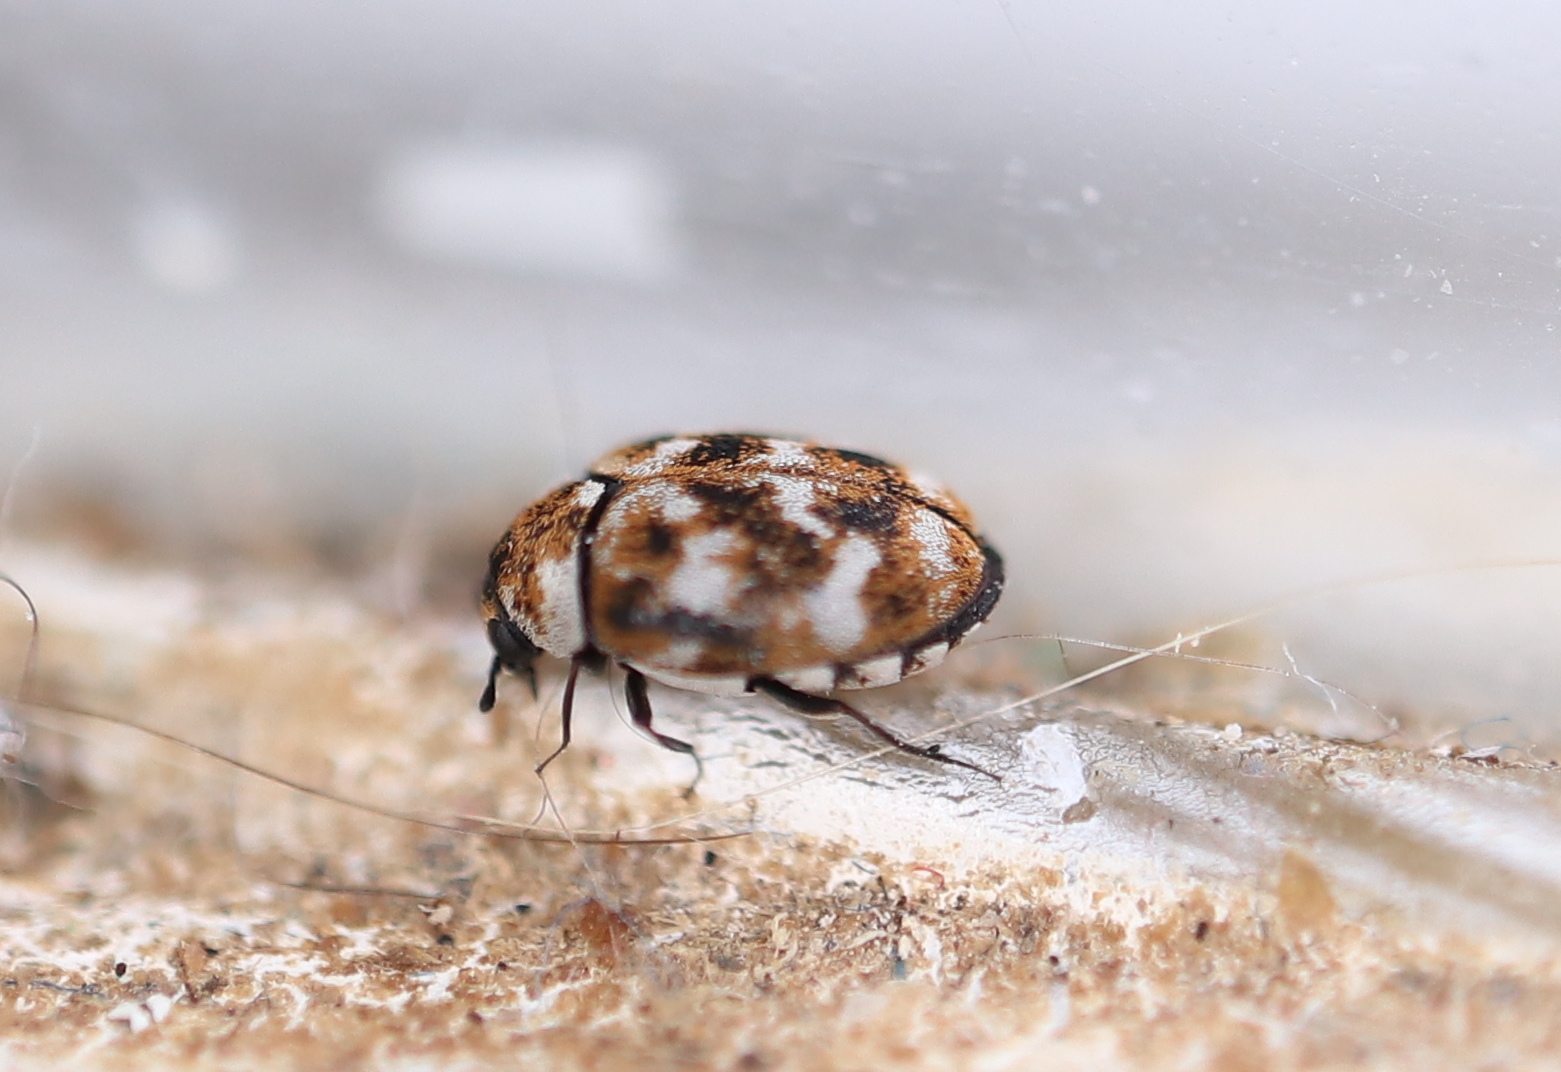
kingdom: Animalia
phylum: Arthropoda
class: Insecta
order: Coleoptera
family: Dermestidae
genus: Anthrenus
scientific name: Anthrenus verbasci
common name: Varied carpet beetle
